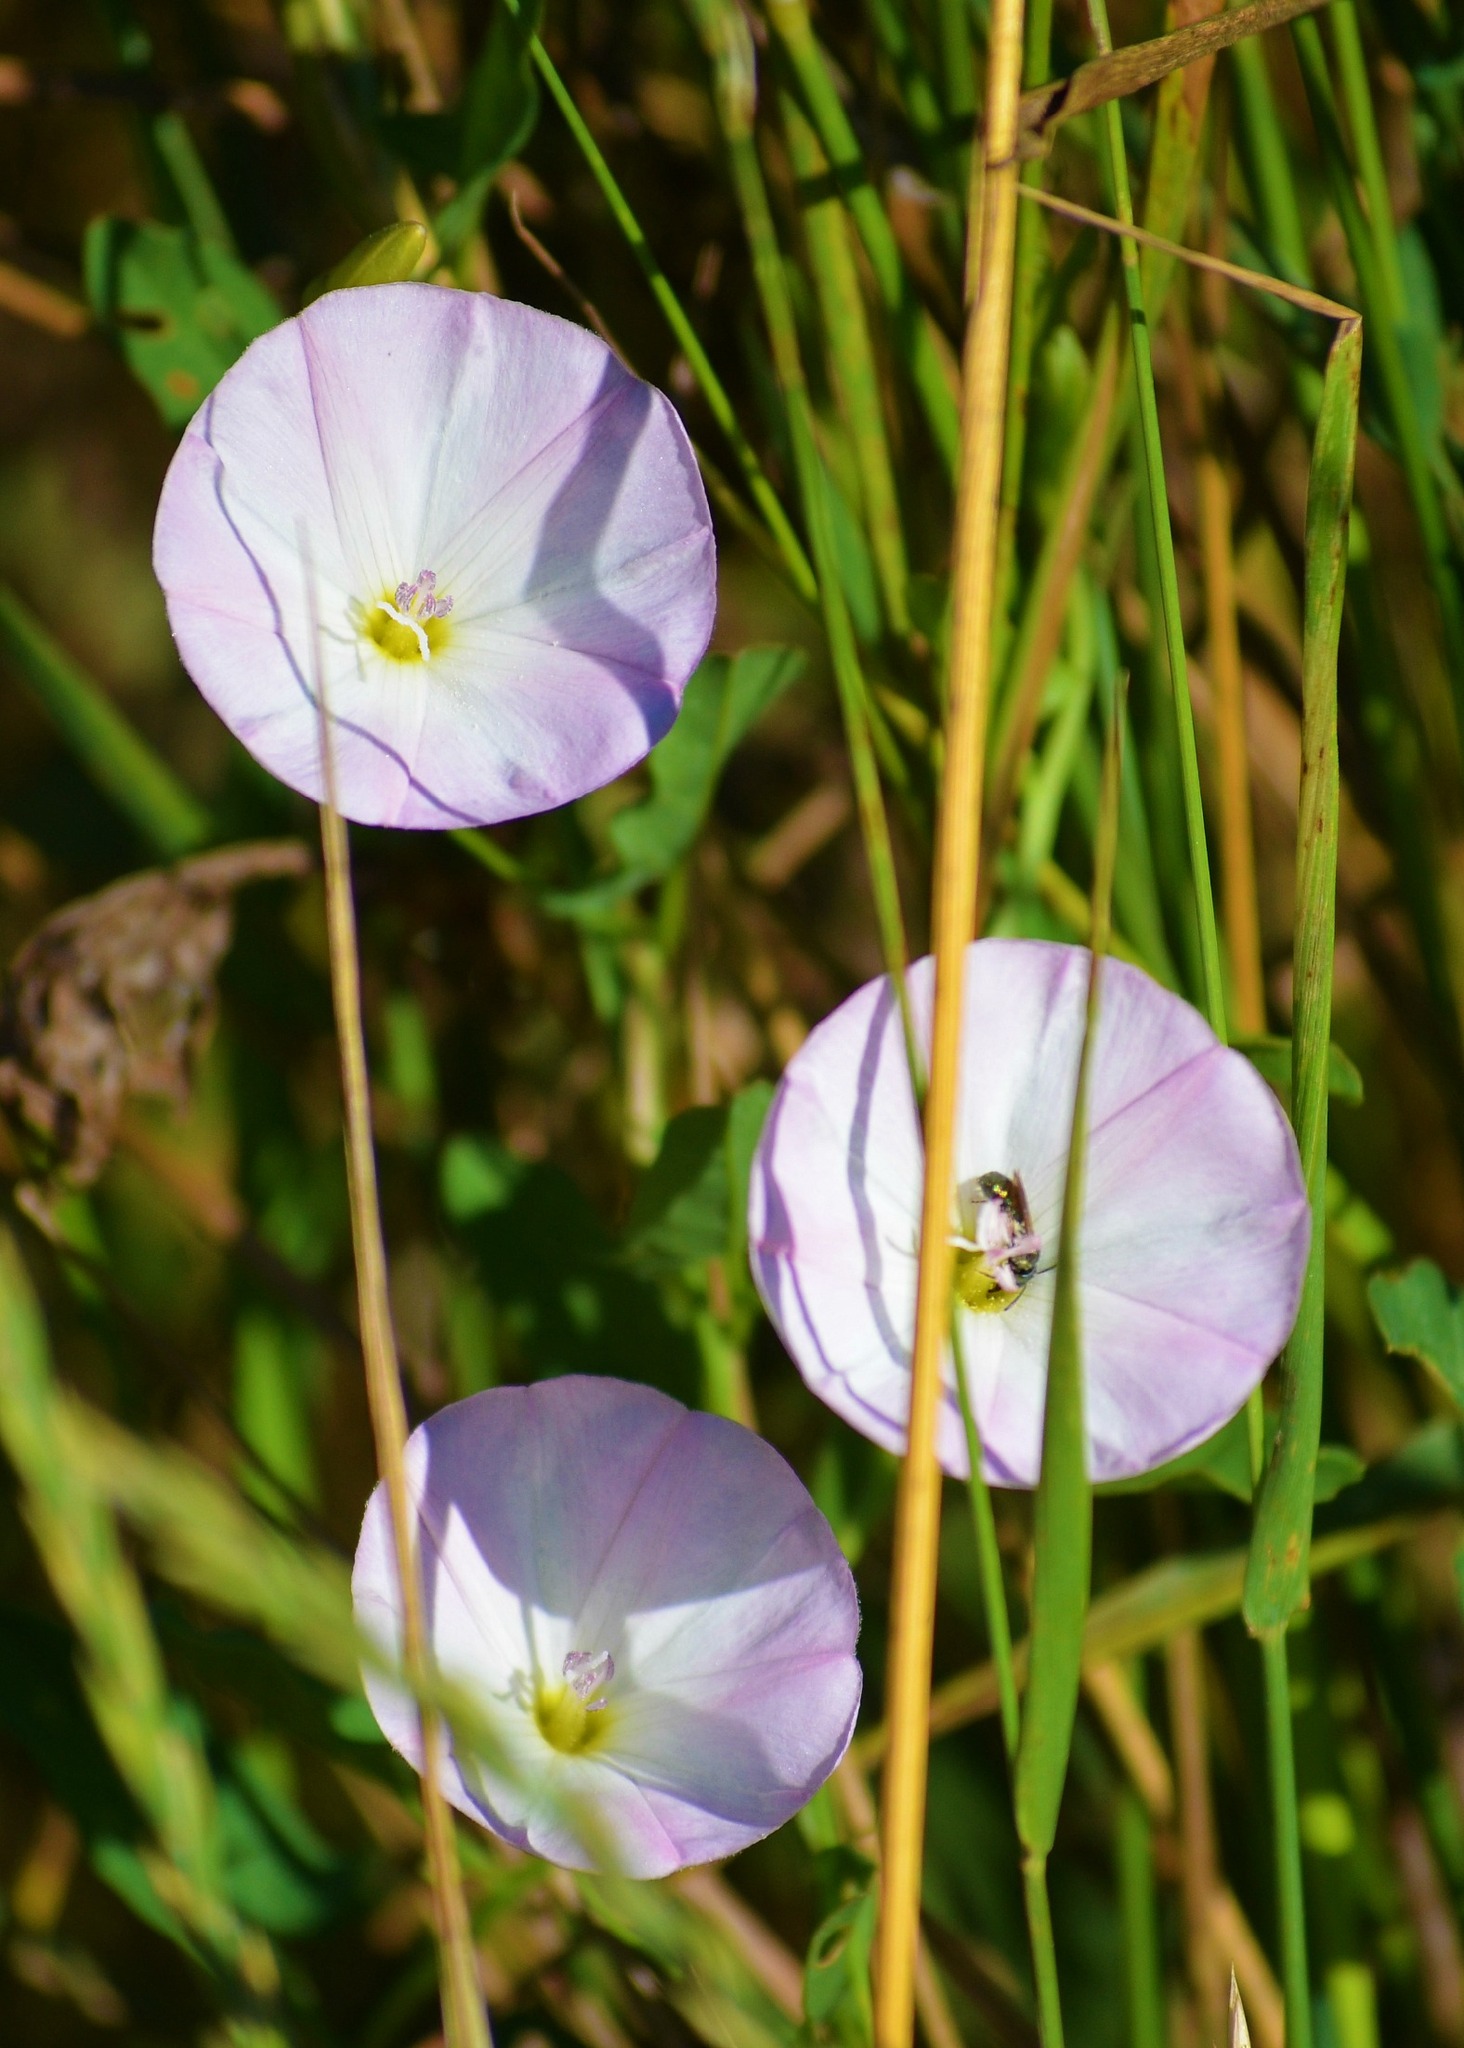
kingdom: Plantae
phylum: Tracheophyta
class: Magnoliopsida
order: Solanales
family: Convolvulaceae
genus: Convolvulus
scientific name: Convolvulus arvensis
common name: Field bindweed
